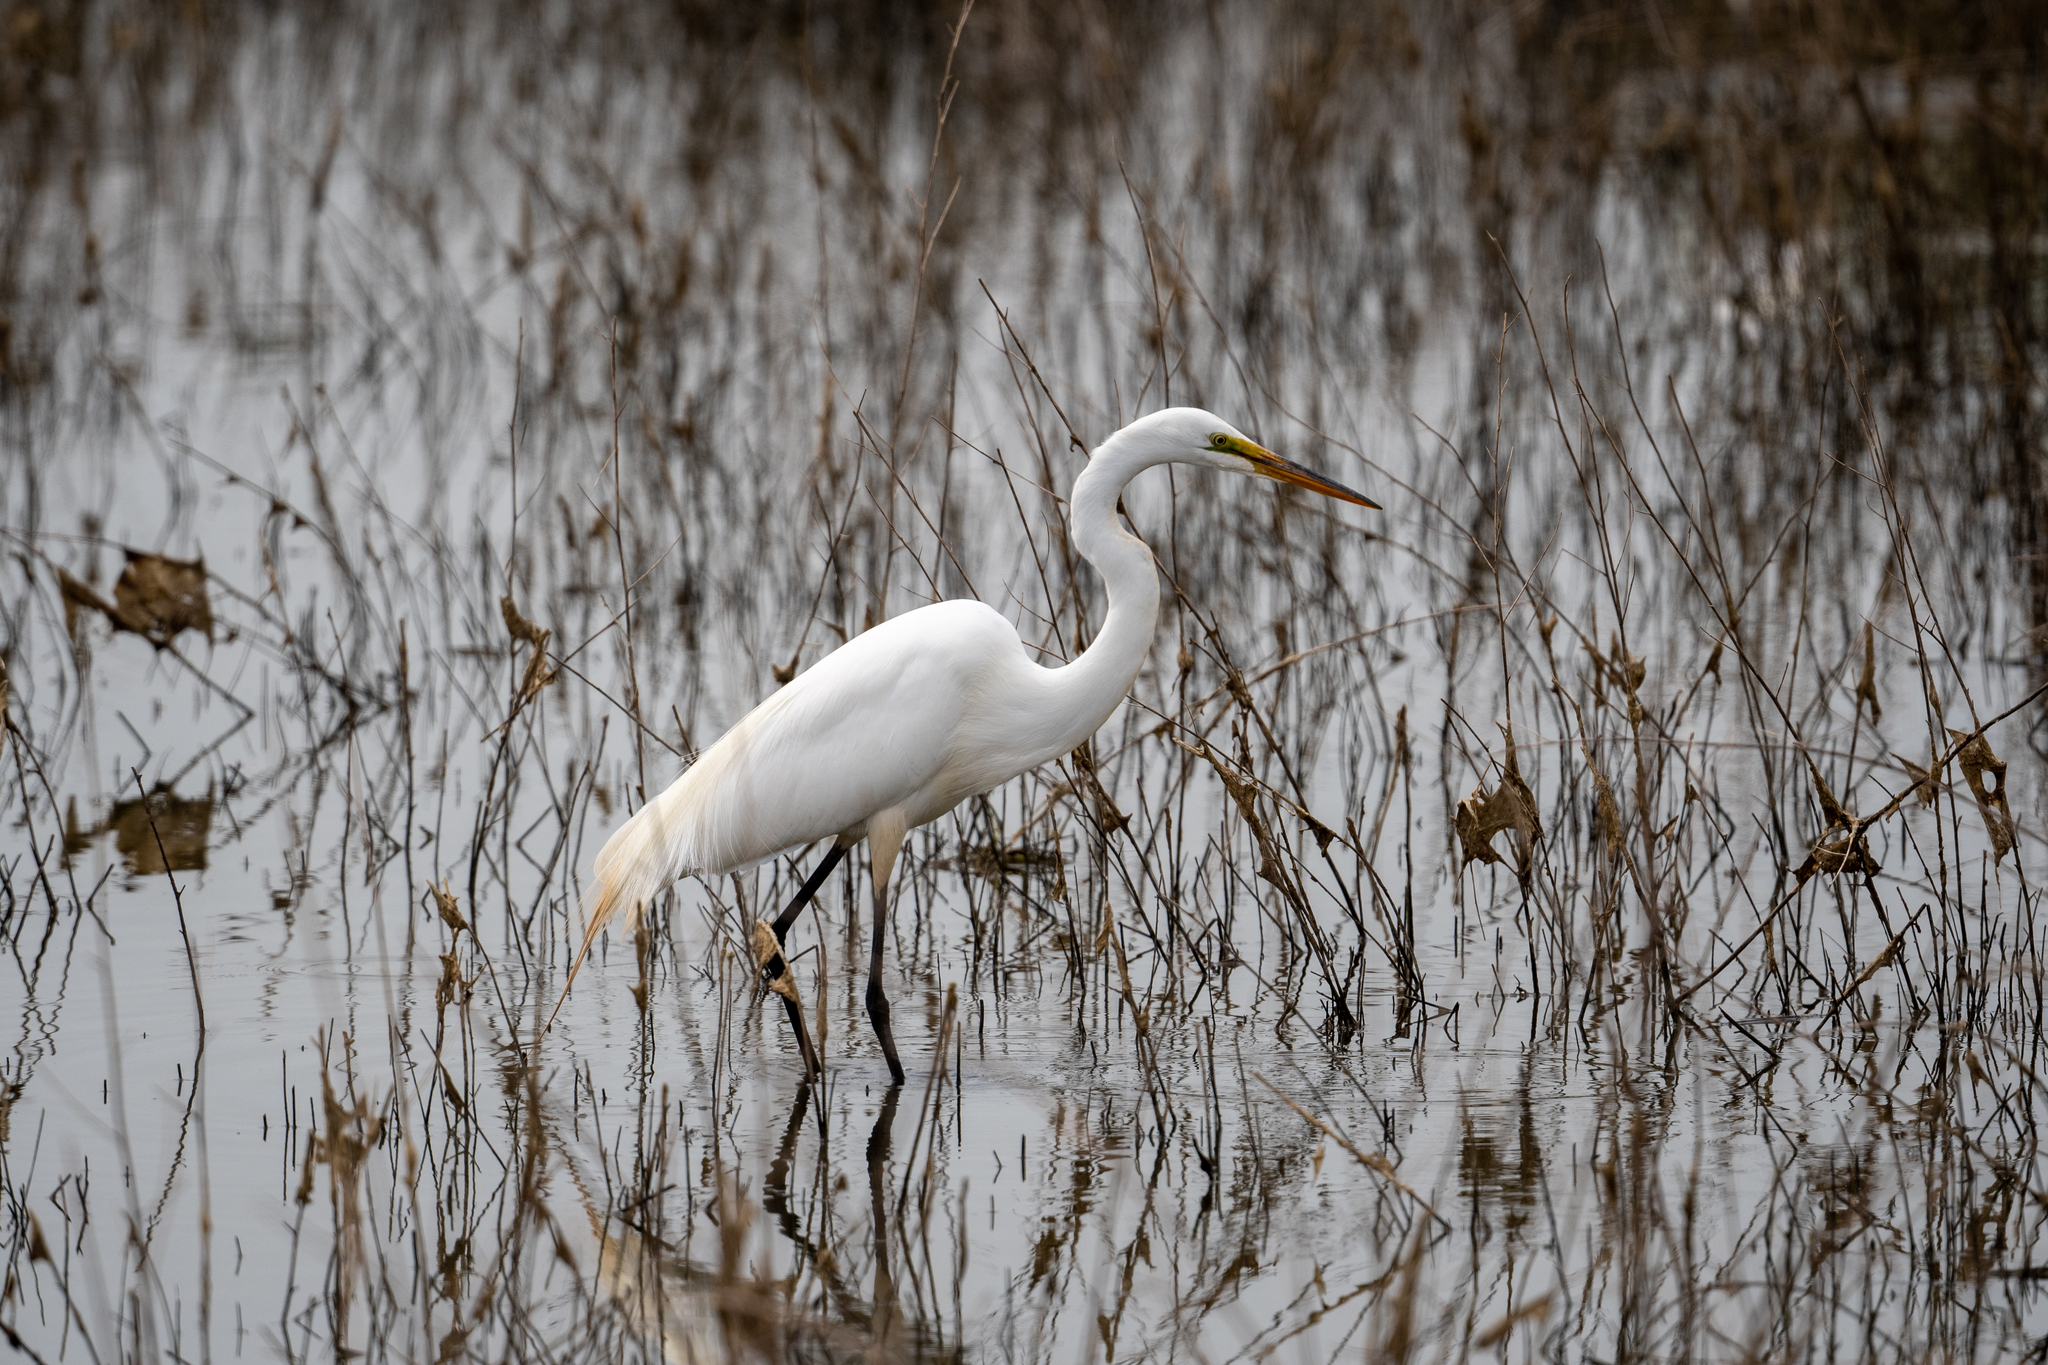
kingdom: Animalia
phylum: Chordata
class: Aves
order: Pelecaniformes
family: Ardeidae
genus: Ardea
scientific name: Ardea alba
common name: Great egret
